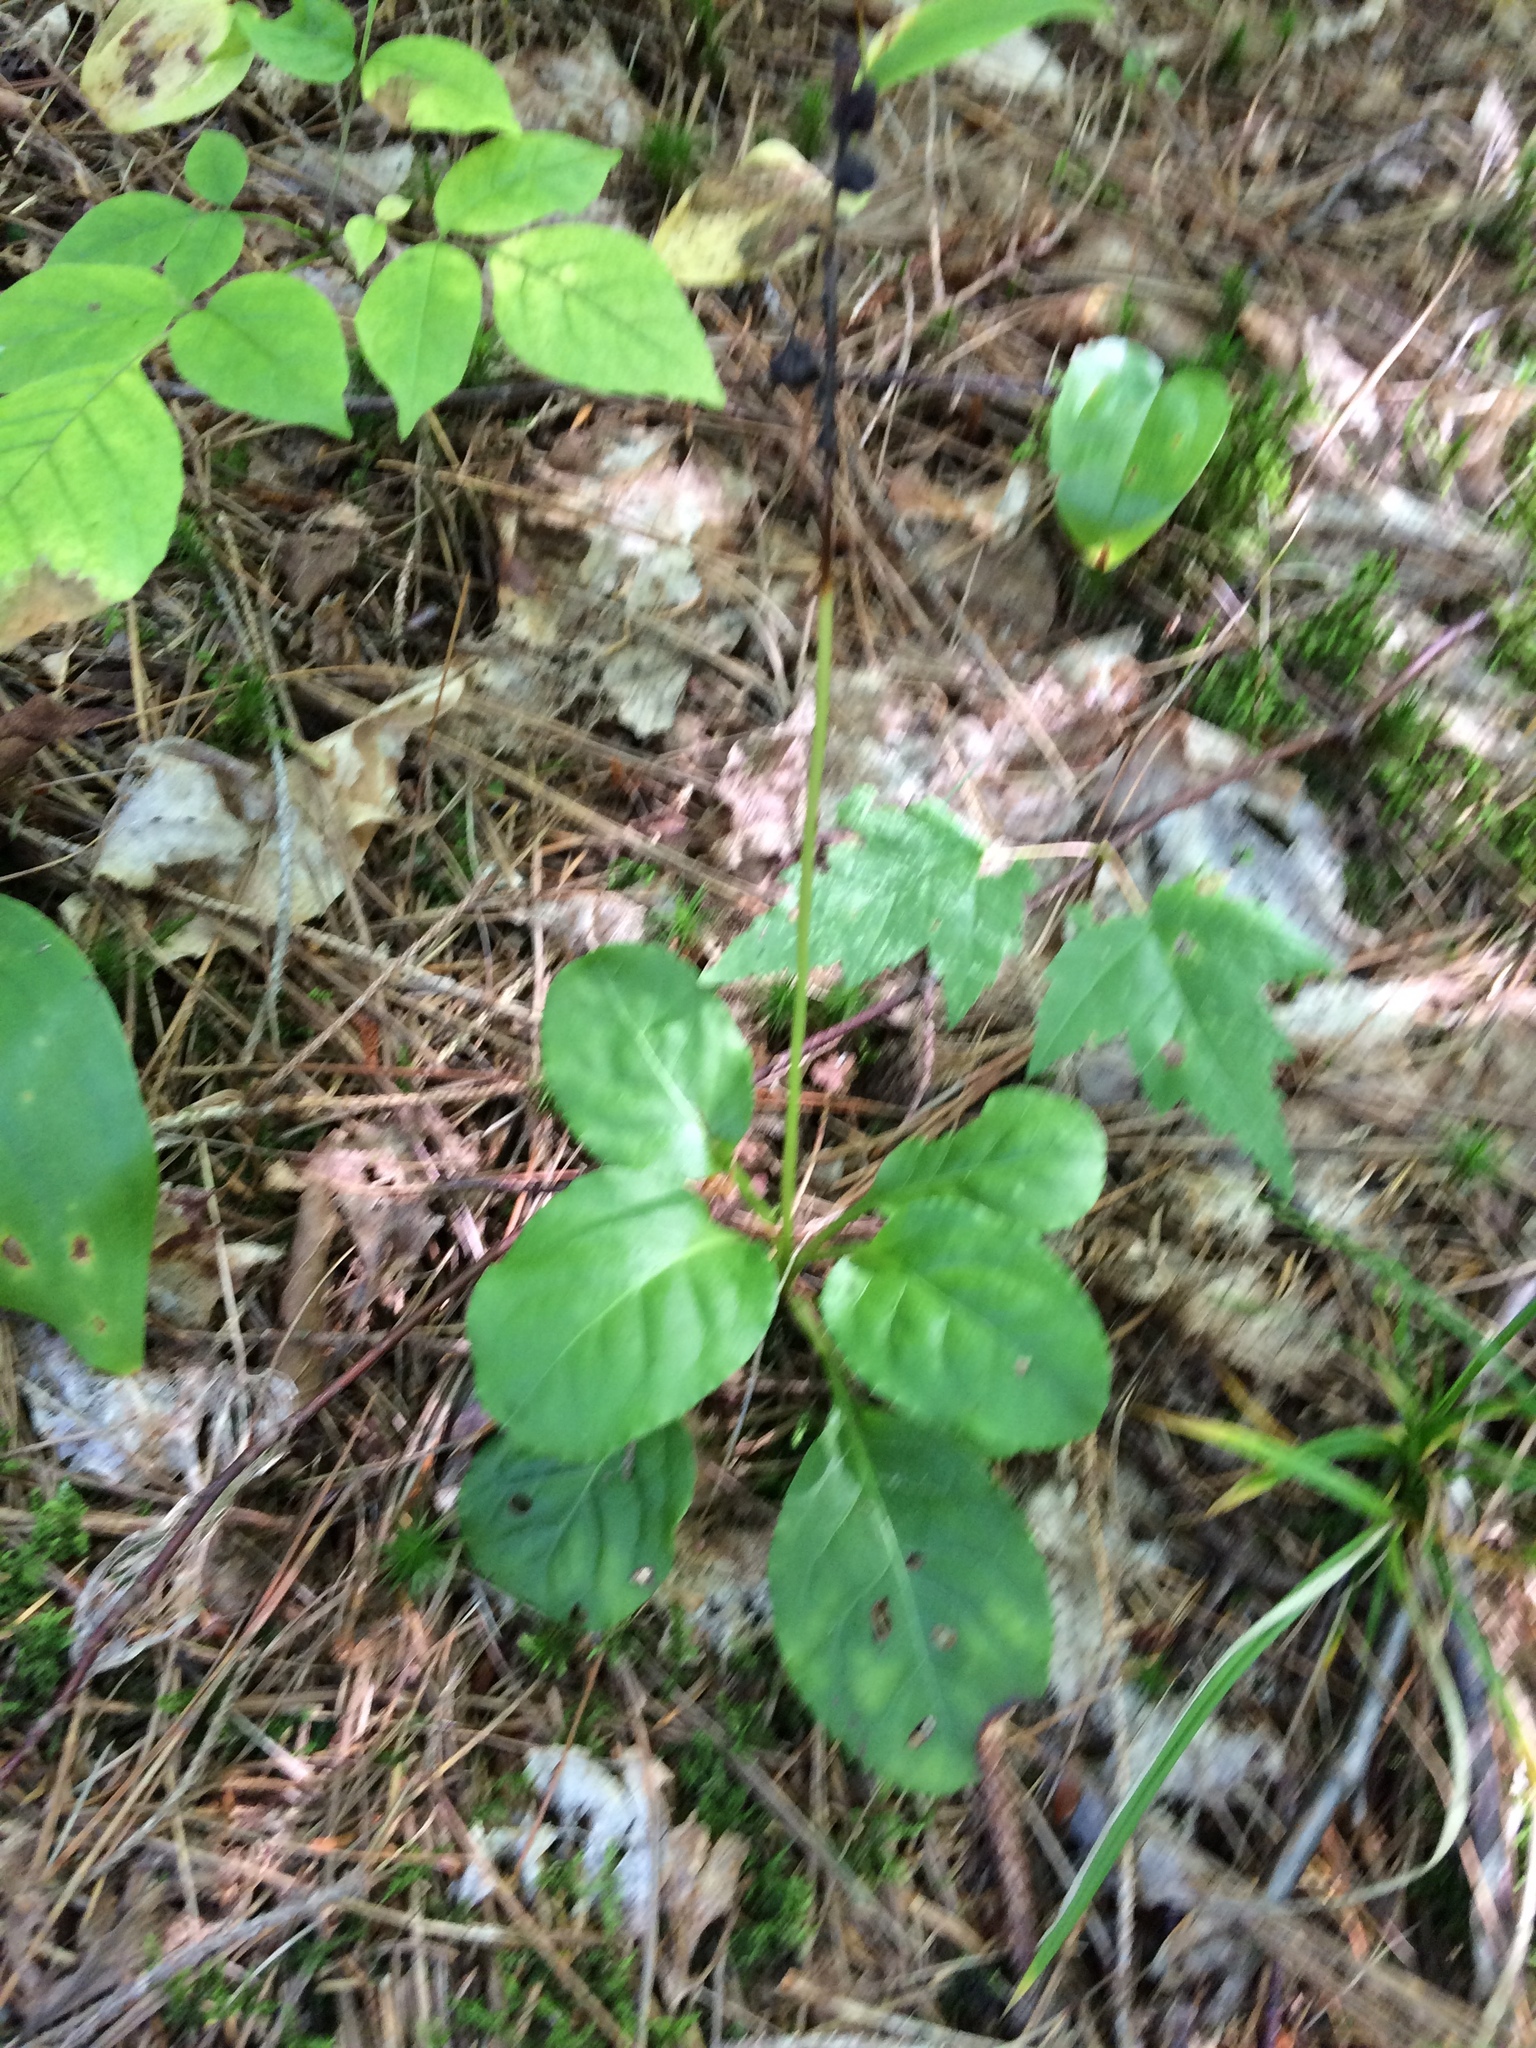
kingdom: Plantae
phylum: Tracheophyta
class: Magnoliopsida
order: Ericales
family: Ericaceae
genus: Pyrola
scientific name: Pyrola elliptica
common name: Shinleaf
